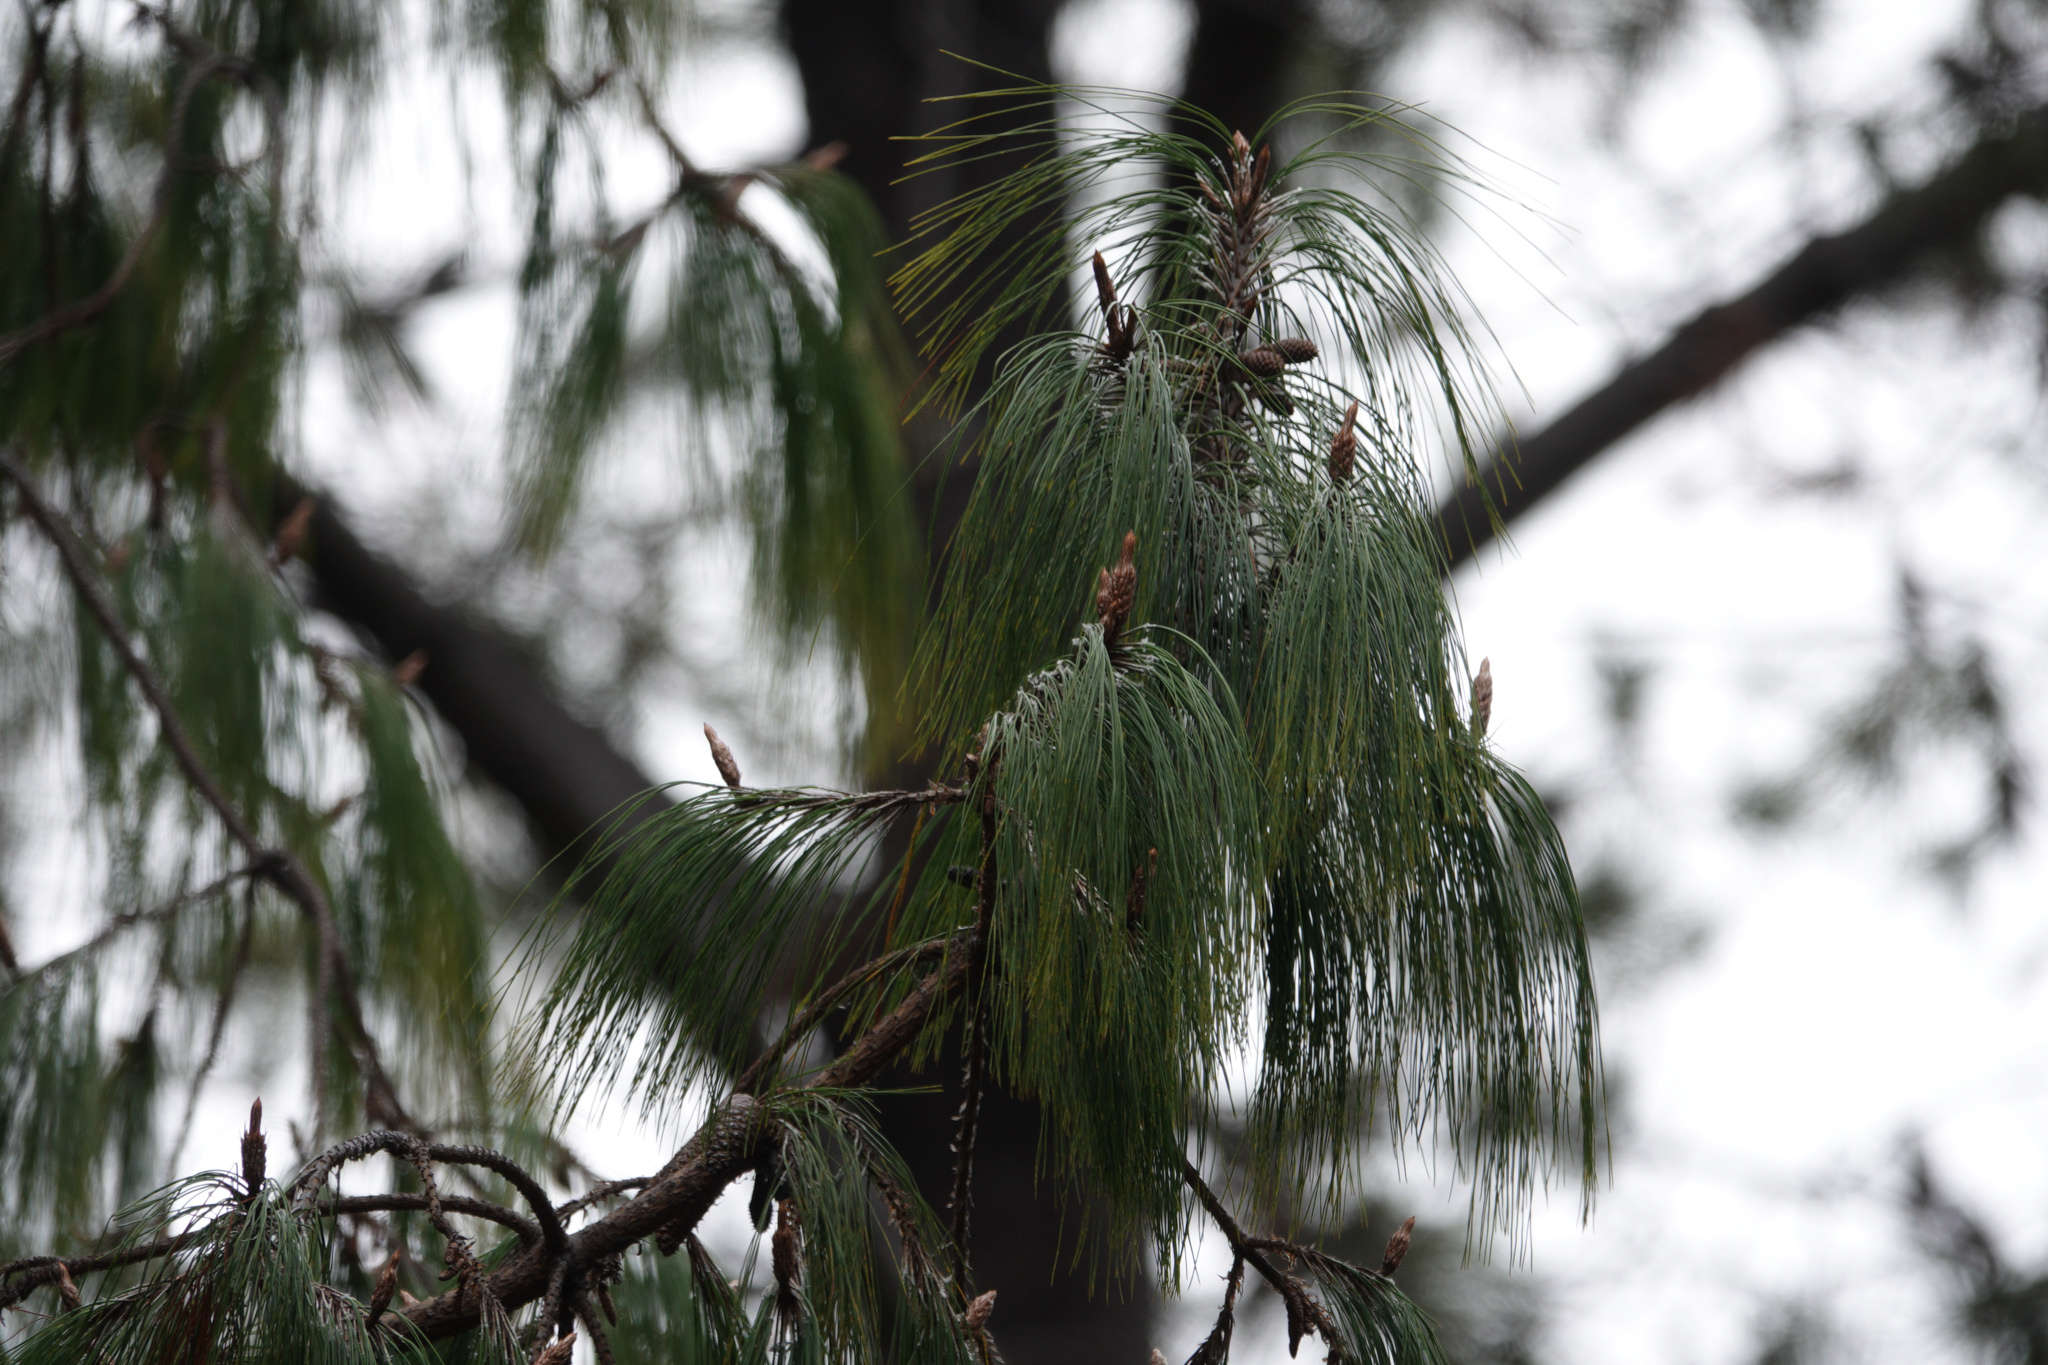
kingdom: Plantae
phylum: Tracheophyta
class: Pinopsida
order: Pinales
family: Pinaceae
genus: Pinus
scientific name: Pinus patula
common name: Mexican weeping pine
